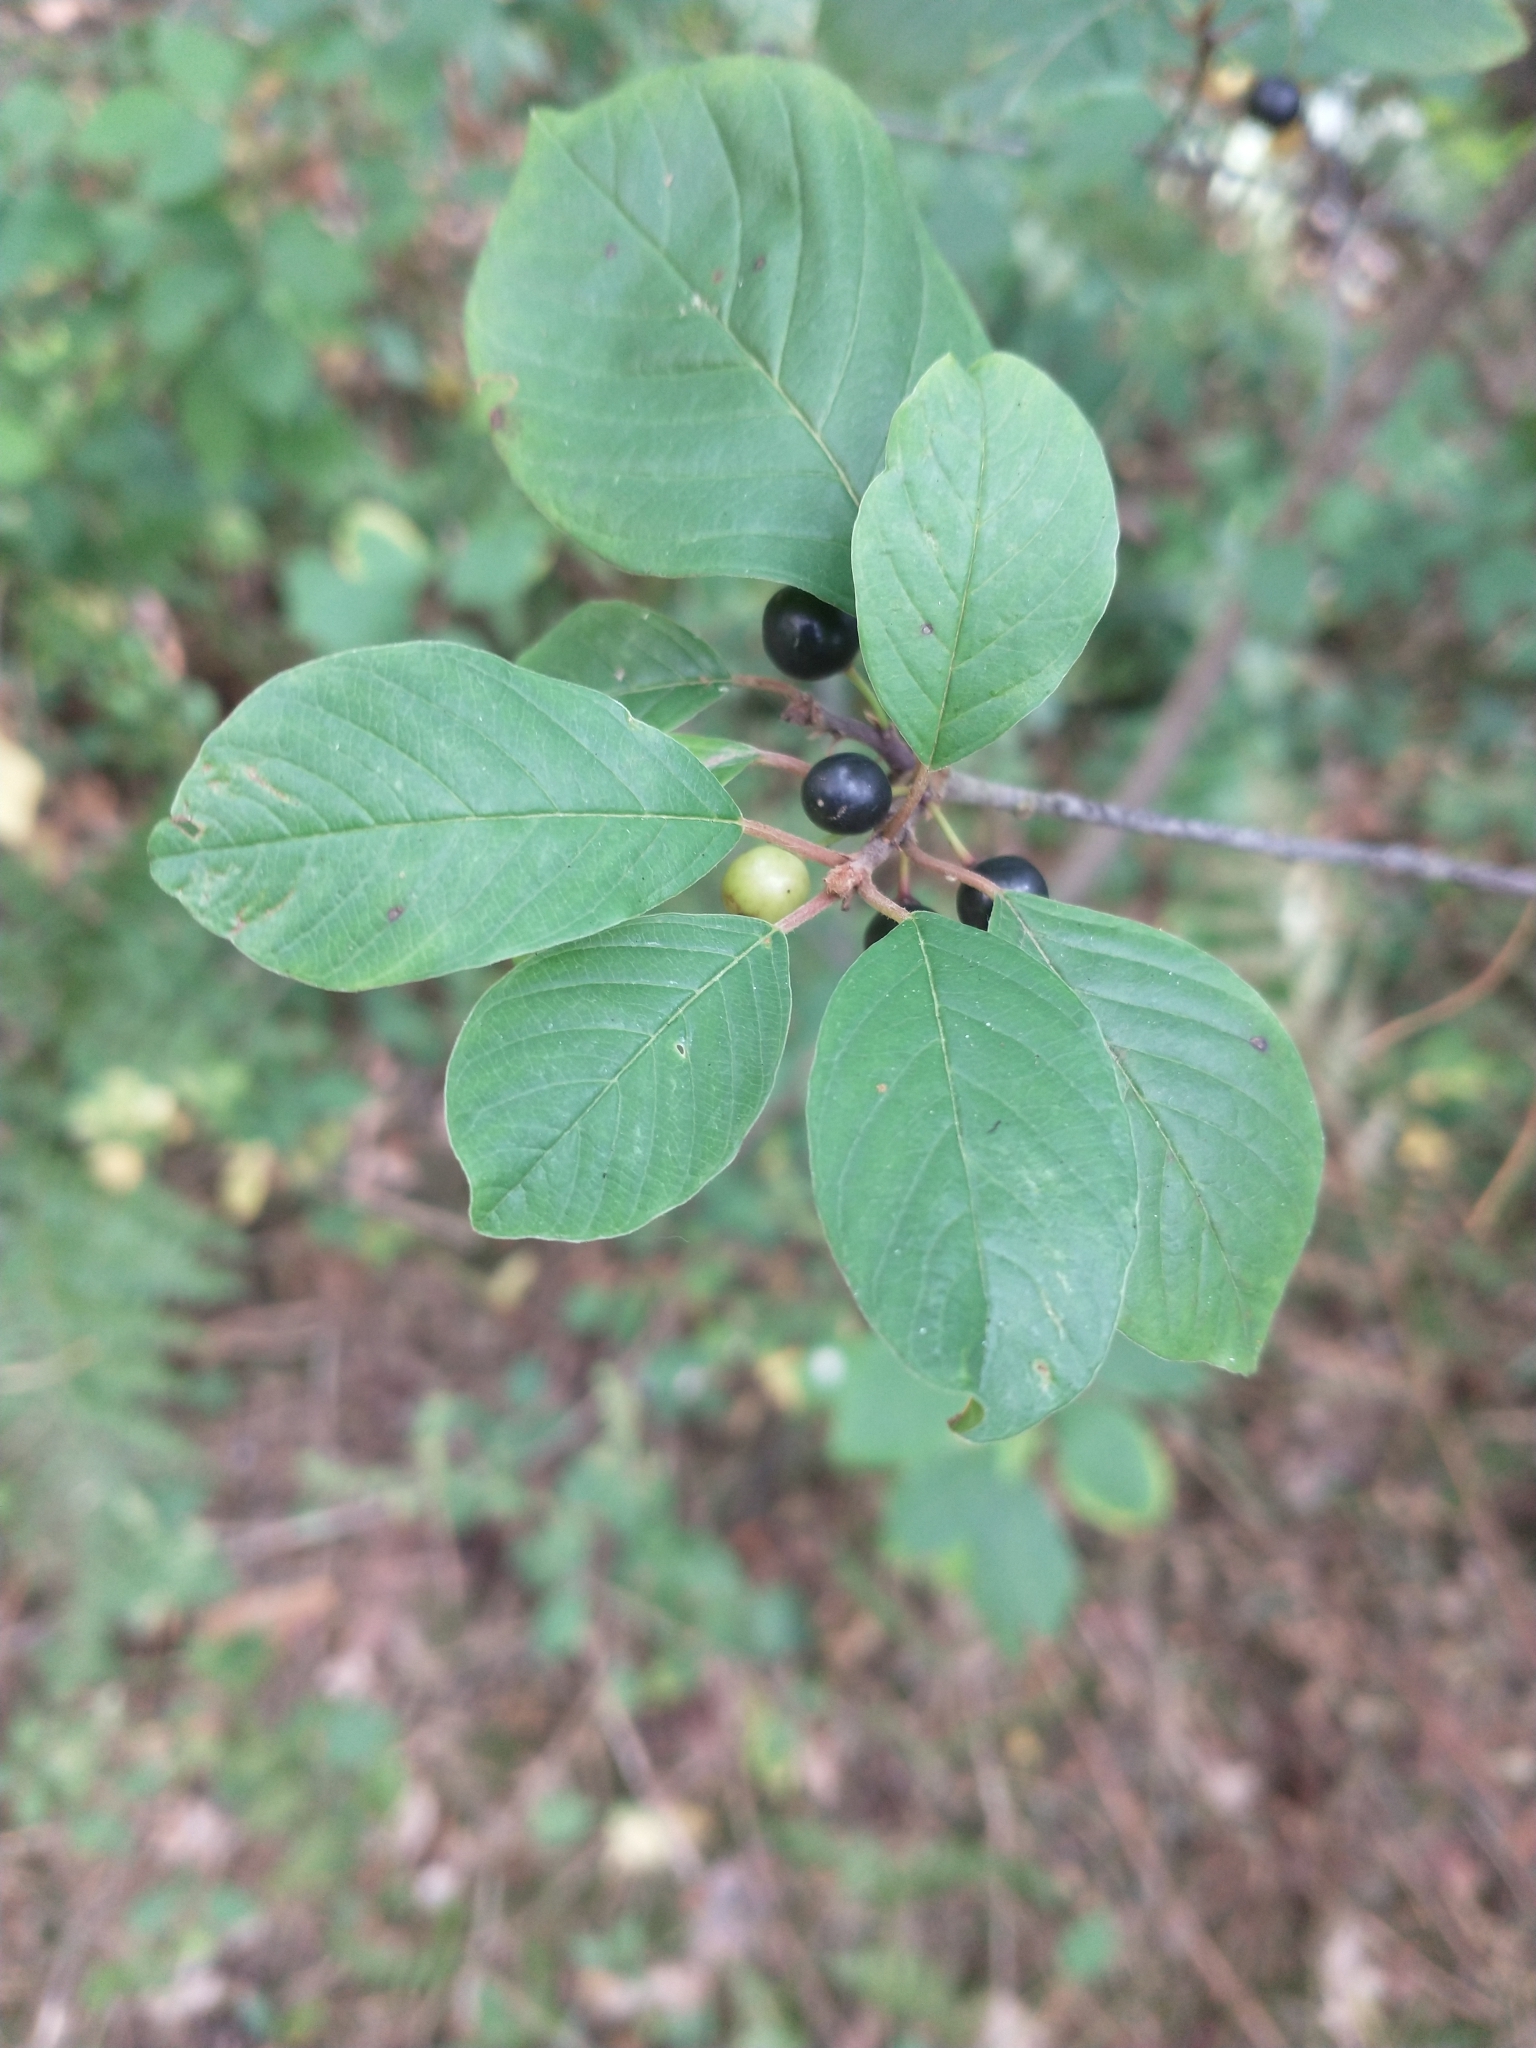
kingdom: Plantae
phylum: Tracheophyta
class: Magnoliopsida
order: Rosales
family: Rhamnaceae
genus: Frangula
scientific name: Frangula alnus
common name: Alder buckthorn
